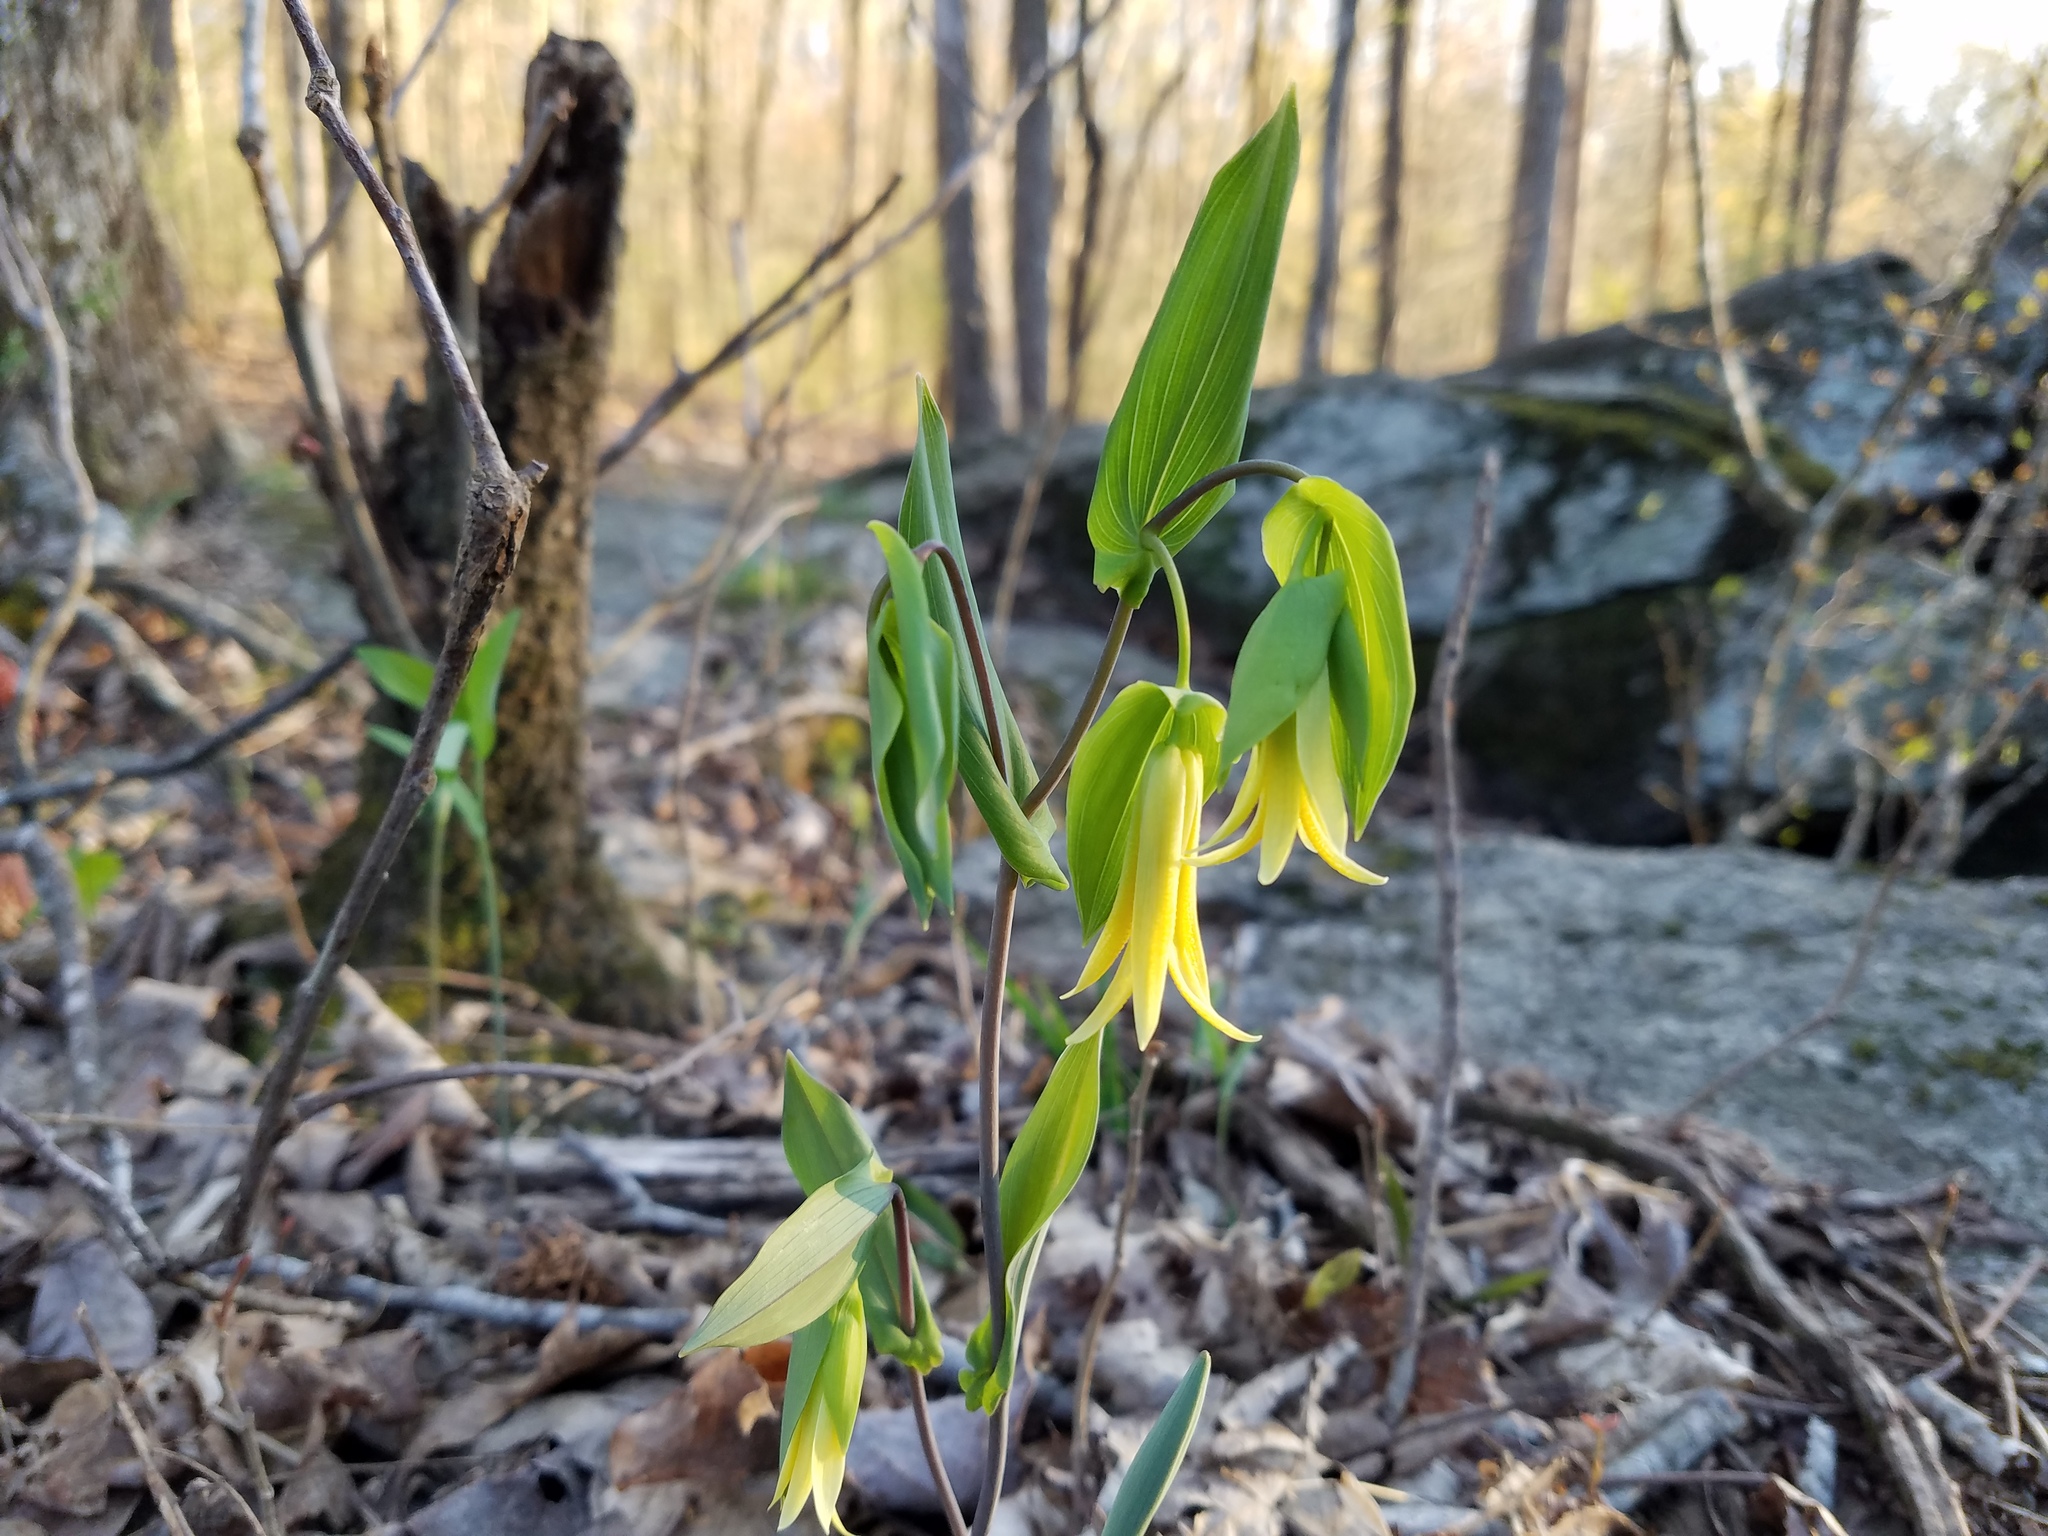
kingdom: Plantae
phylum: Tracheophyta
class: Liliopsida
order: Liliales
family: Colchicaceae
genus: Uvularia
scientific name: Uvularia perfoliata
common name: Perfoliate bellwort
